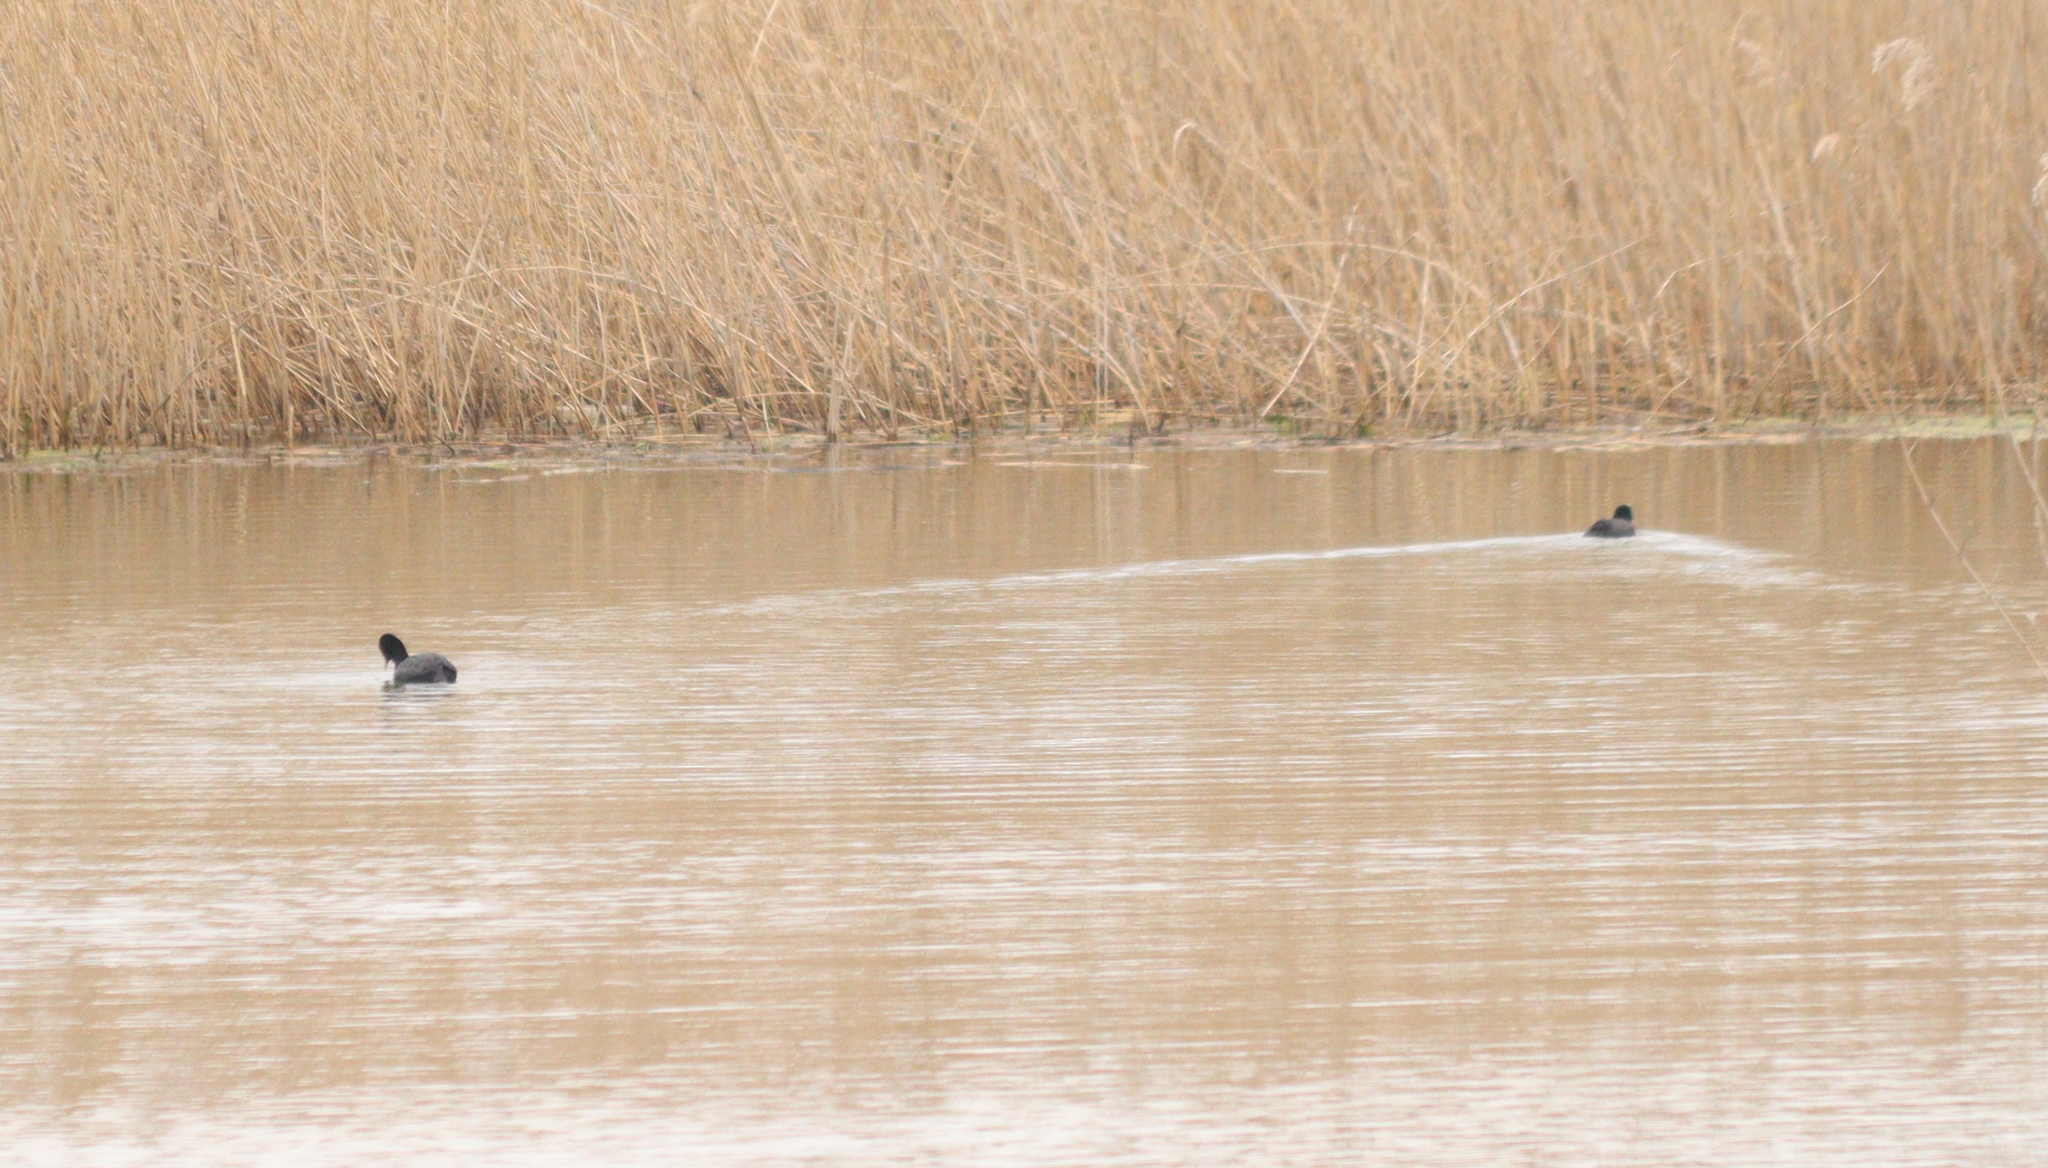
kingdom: Animalia
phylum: Chordata
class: Aves
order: Gruiformes
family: Rallidae
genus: Fulica
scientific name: Fulica atra
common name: Eurasian coot
